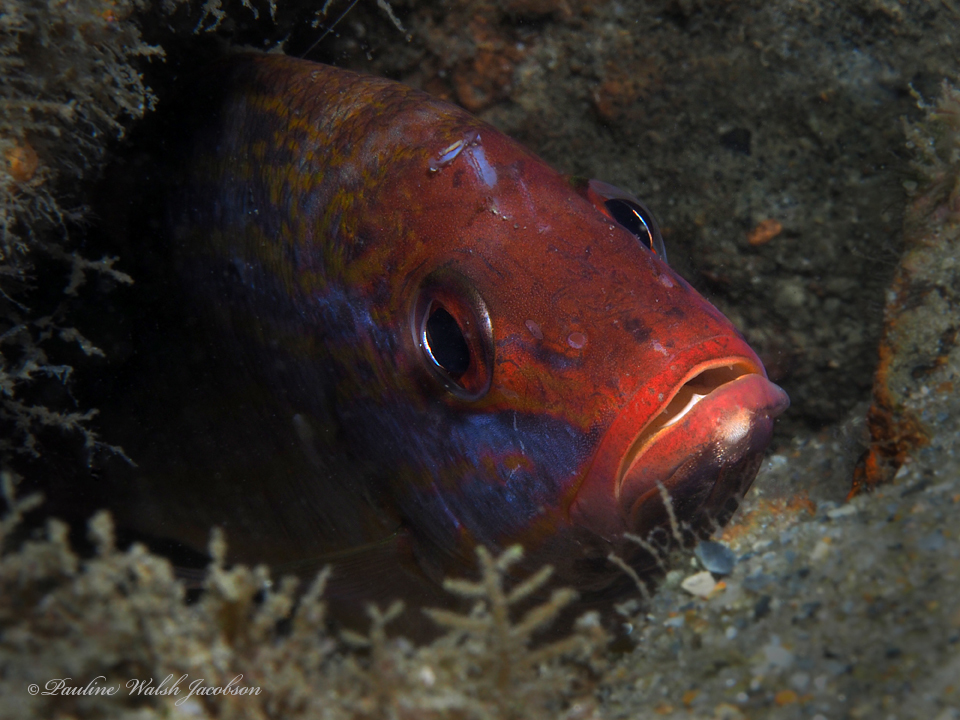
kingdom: Animalia
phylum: Chordata
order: Perciformes
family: Lutjanidae
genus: Lutjanus
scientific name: Lutjanus synagris
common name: Lane snapper
